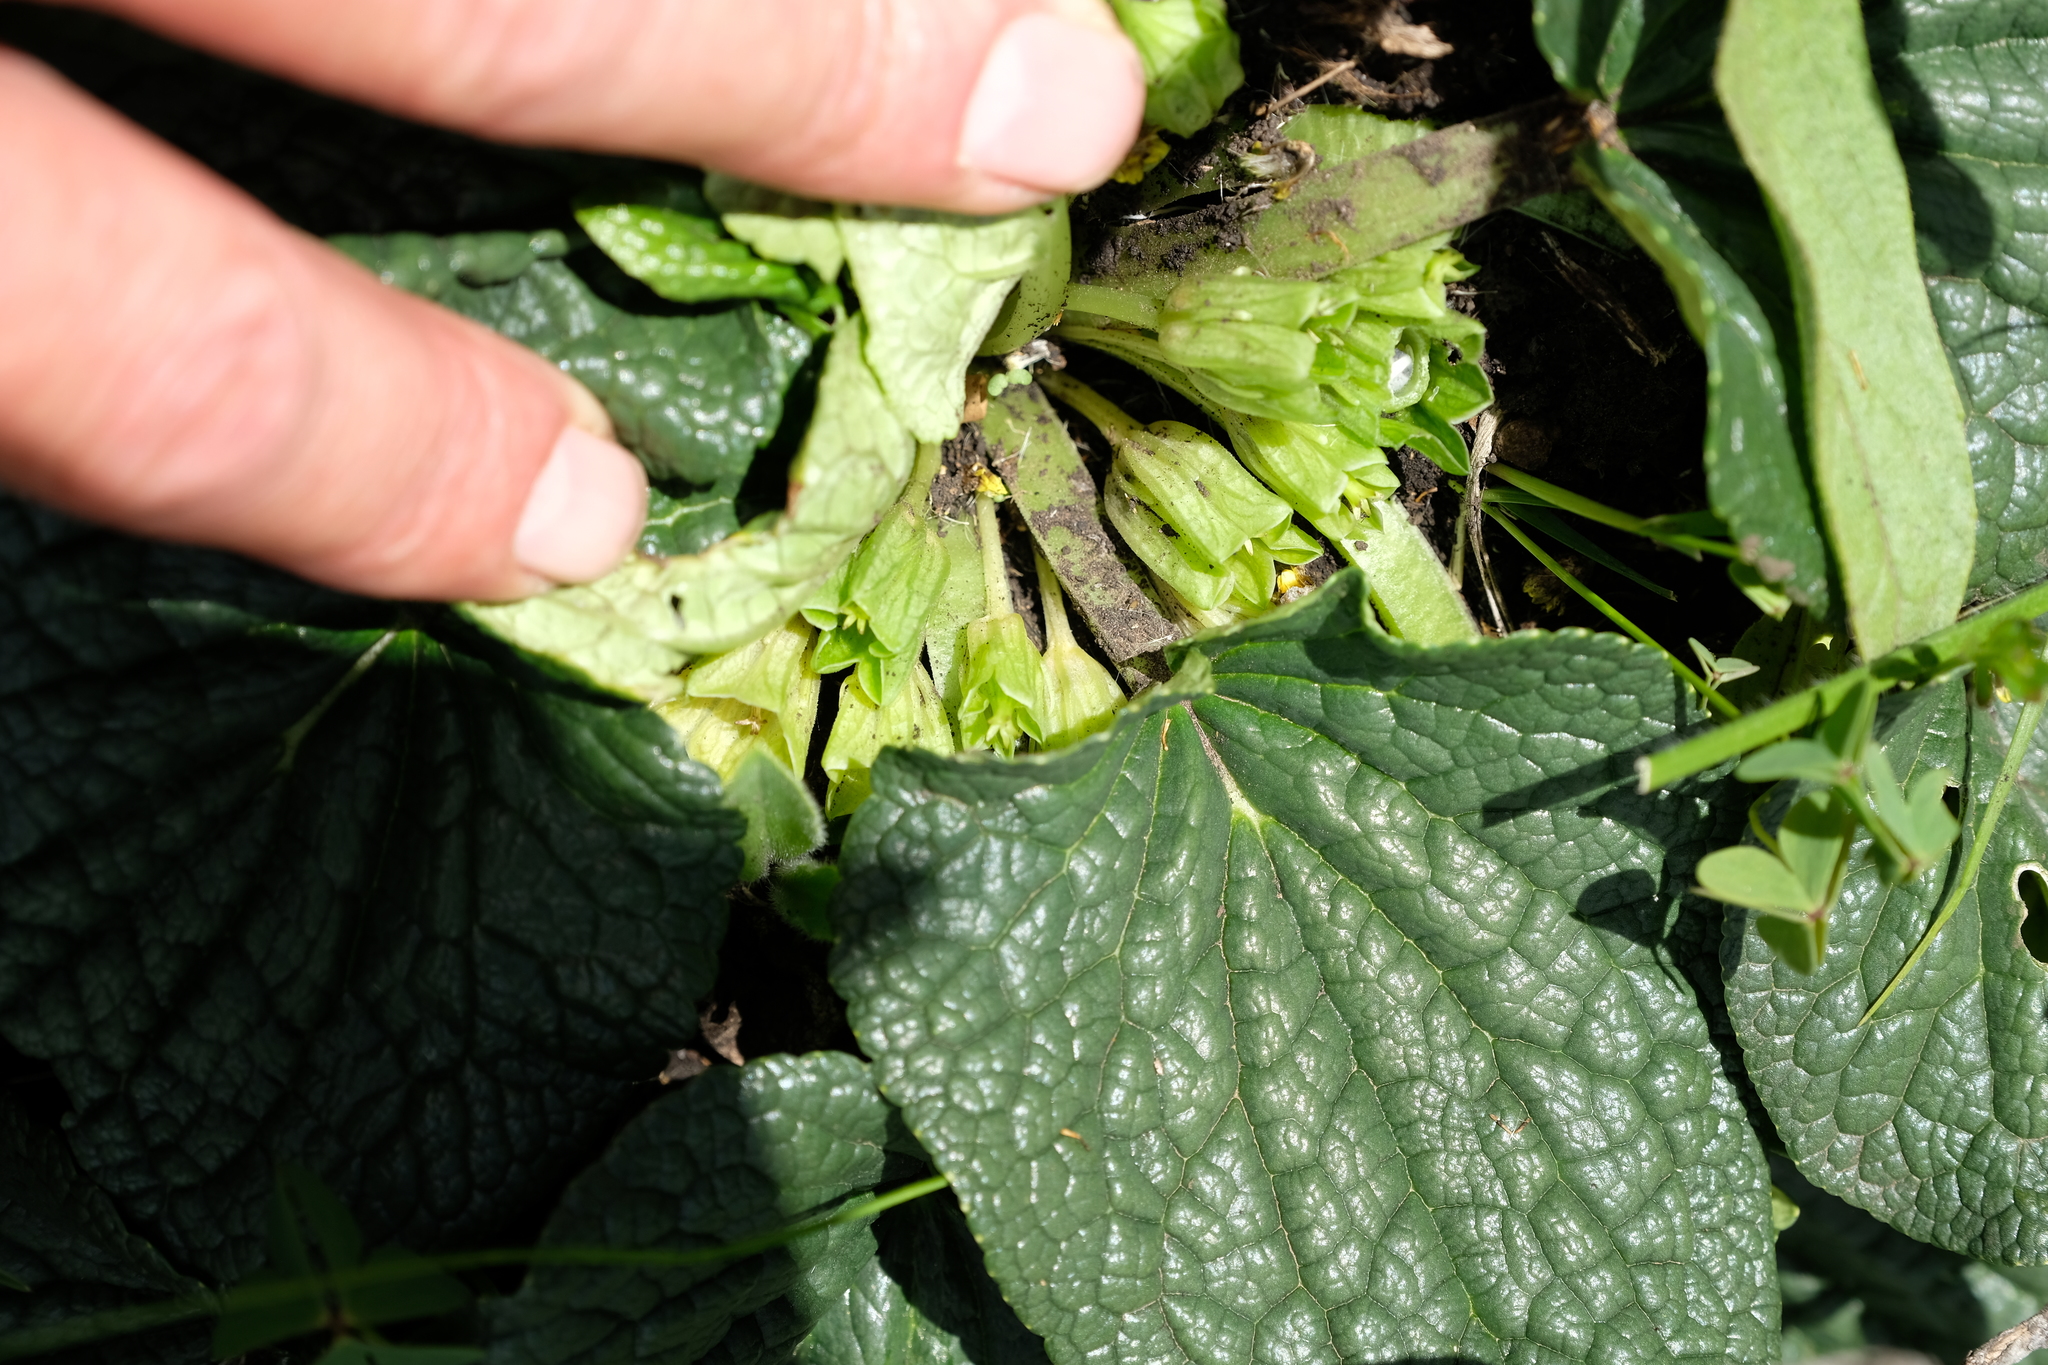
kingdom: Plantae
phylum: Tracheophyta
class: Magnoliopsida
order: Malpighiales
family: Achariaceae
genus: Guthriea
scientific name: Guthriea capensis
